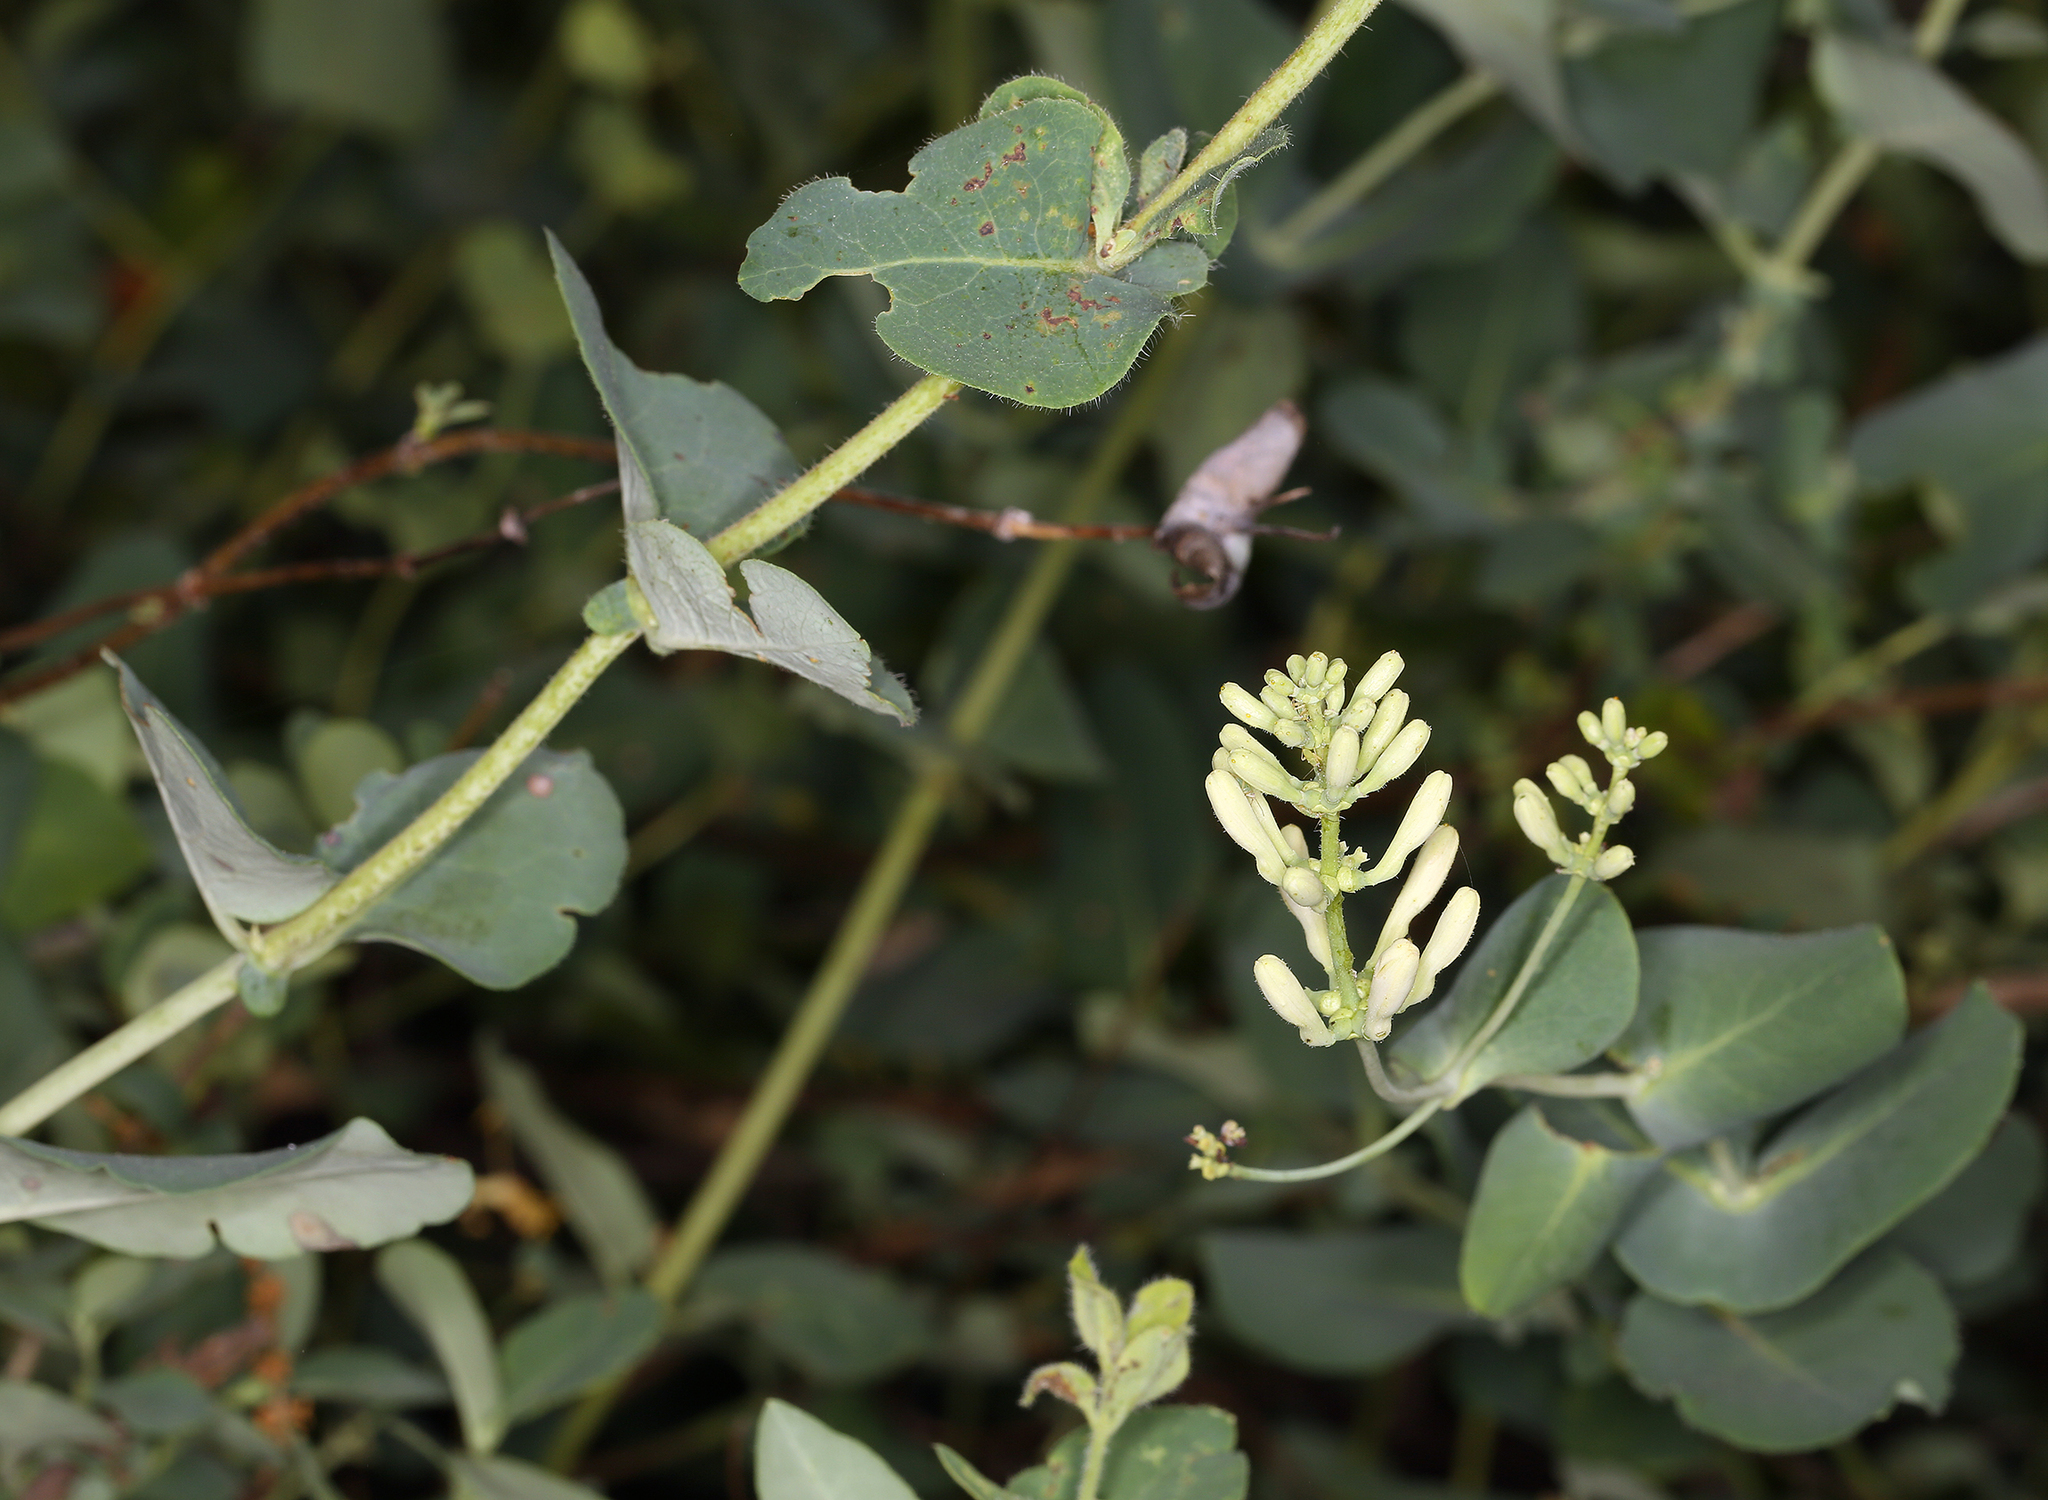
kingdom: Plantae
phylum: Tracheophyta
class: Magnoliopsida
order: Dipsacales
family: Caprifoliaceae
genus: Lonicera
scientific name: Lonicera interrupta
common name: Chaparral honeysuckle
